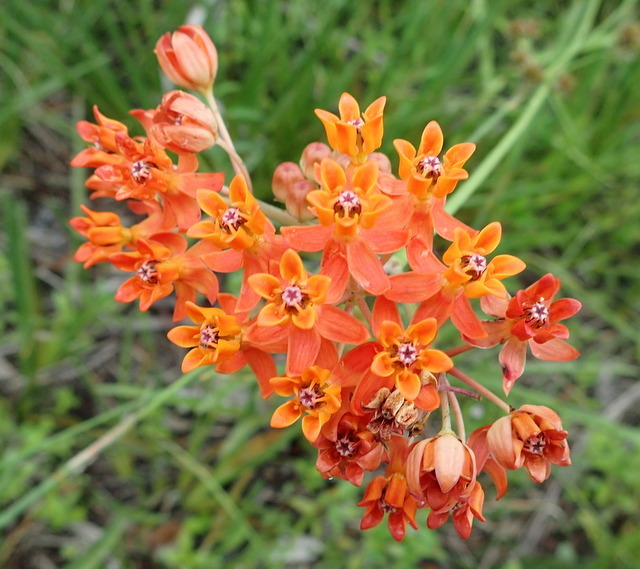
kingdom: Plantae
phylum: Tracheophyta
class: Magnoliopsida
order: Gentianales
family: Apocynaceae
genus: Asclepias
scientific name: Asclepias lanceolata
